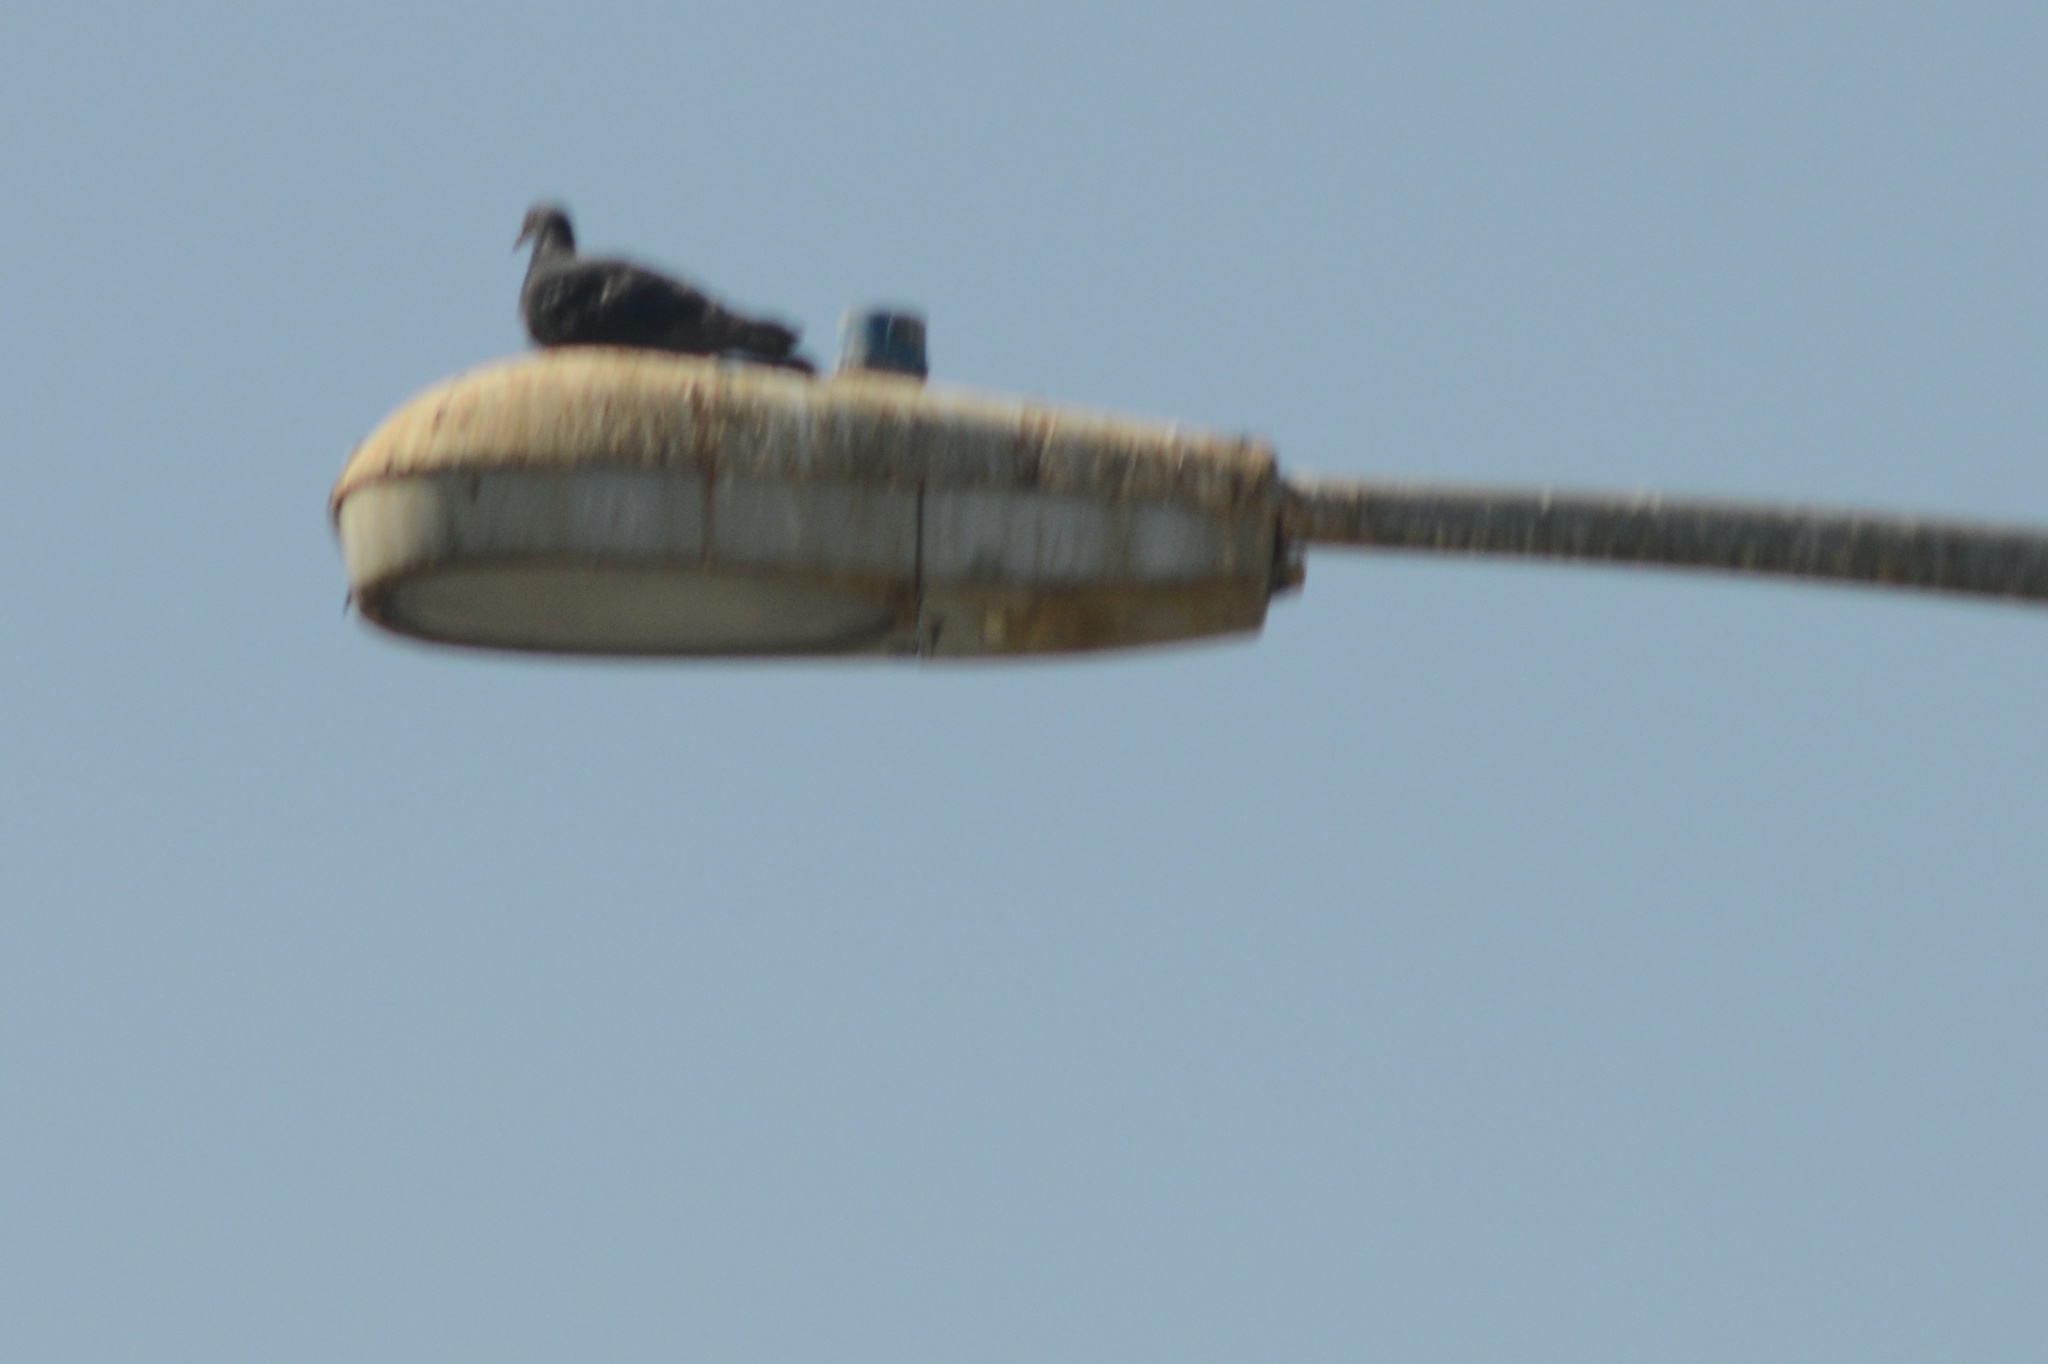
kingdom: Animalia
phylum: Chordata
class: Aves
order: Columbiformes
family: Columbidae
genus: Columba
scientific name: Columba livia
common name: Rock pigeon
